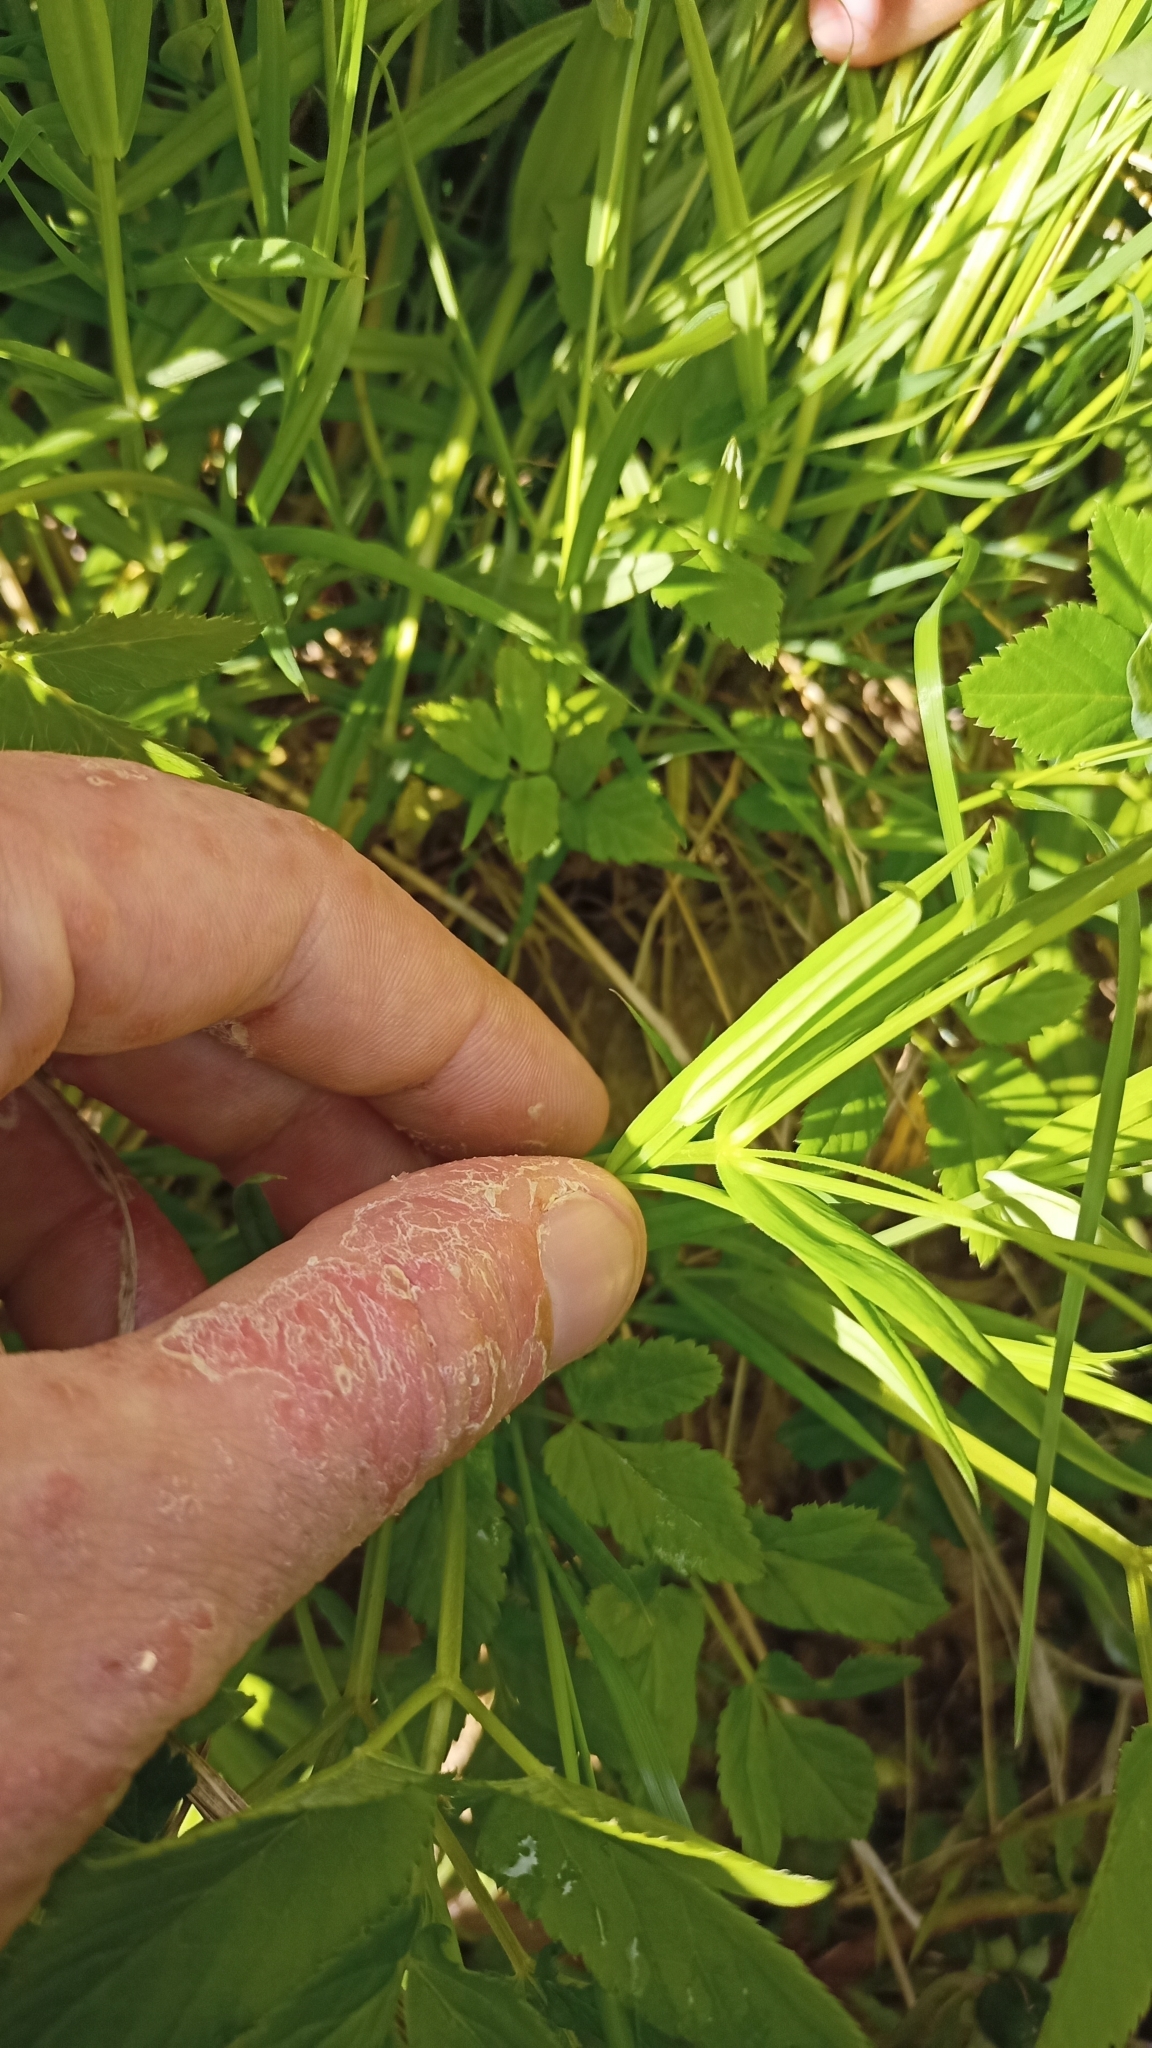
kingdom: Plantae
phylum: Tracheophyta
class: Magnoliopsida
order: Caryophyllales
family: Caryophyllaceae
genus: Rabelera
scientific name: Rabelera holostea
